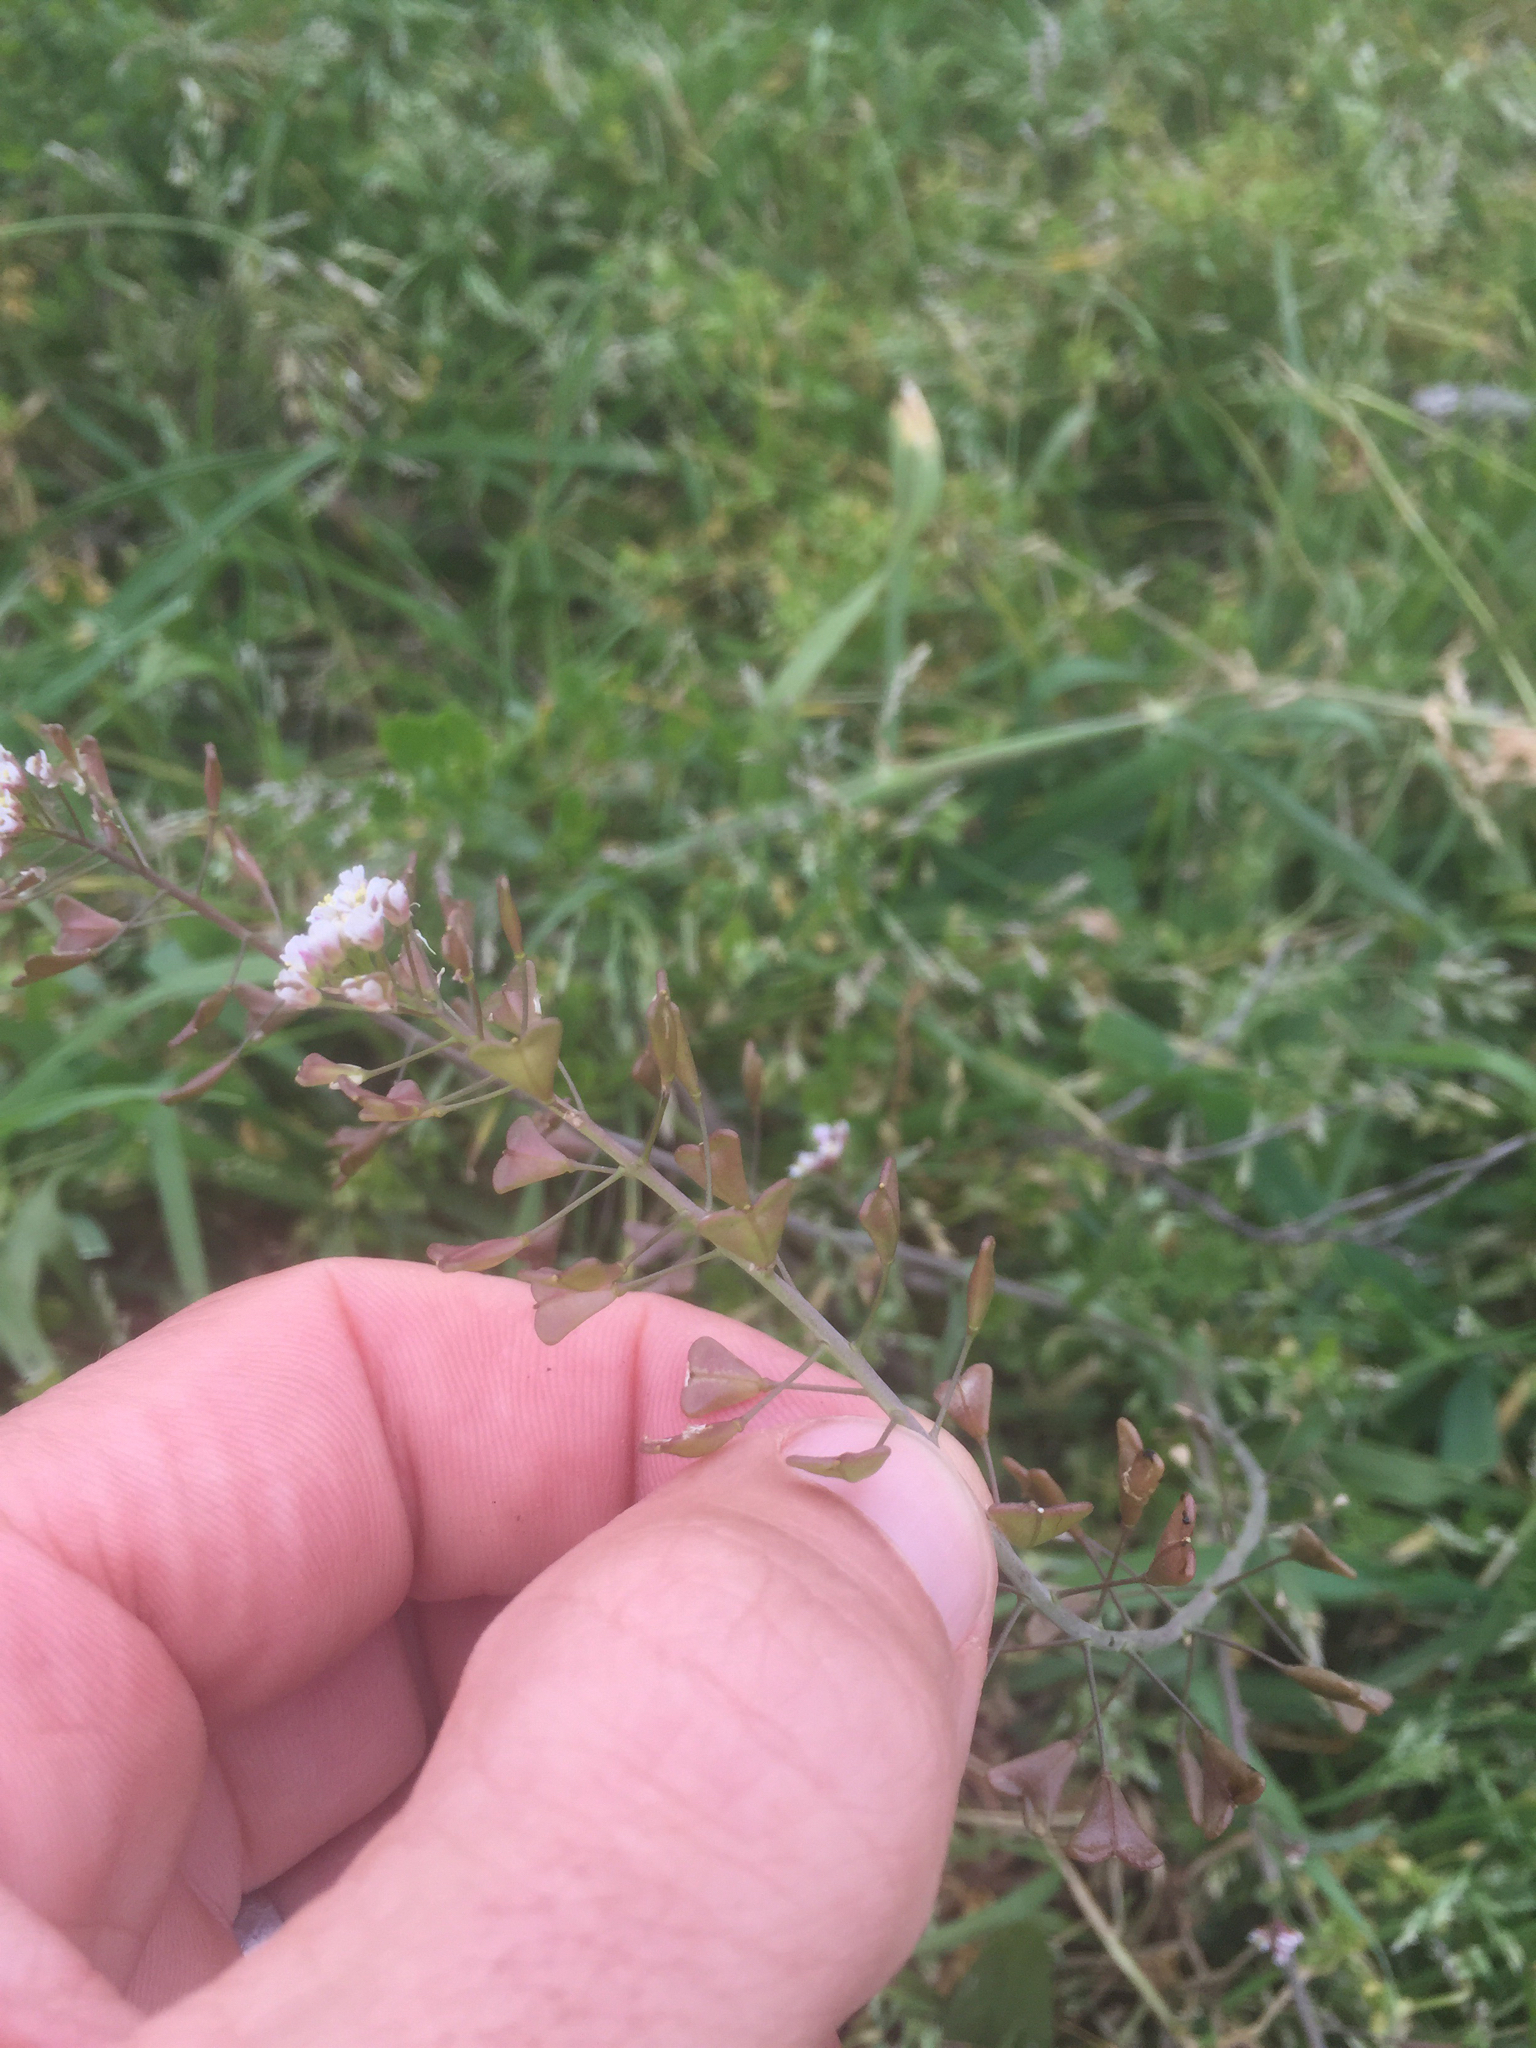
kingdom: Plantae
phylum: Tracheophyta
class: Magnoliopsida
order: Brassicales
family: Brassicaceae
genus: Capsella
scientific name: Capsella bursa-pastoris
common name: Shepherd's purse
